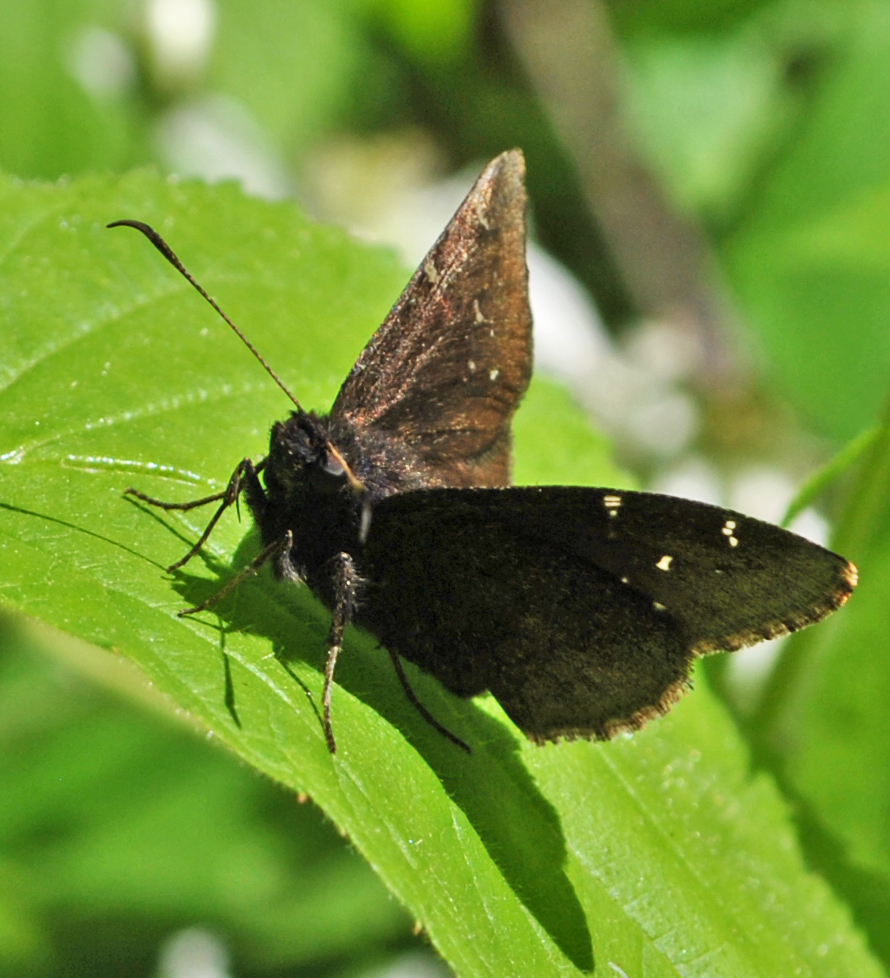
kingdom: Animalia
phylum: Arthropoda
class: Insecta
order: Lepidoptera
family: Hesperiidae
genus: Thorybes
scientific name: Thorybes pylades
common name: Northern cloudywing
